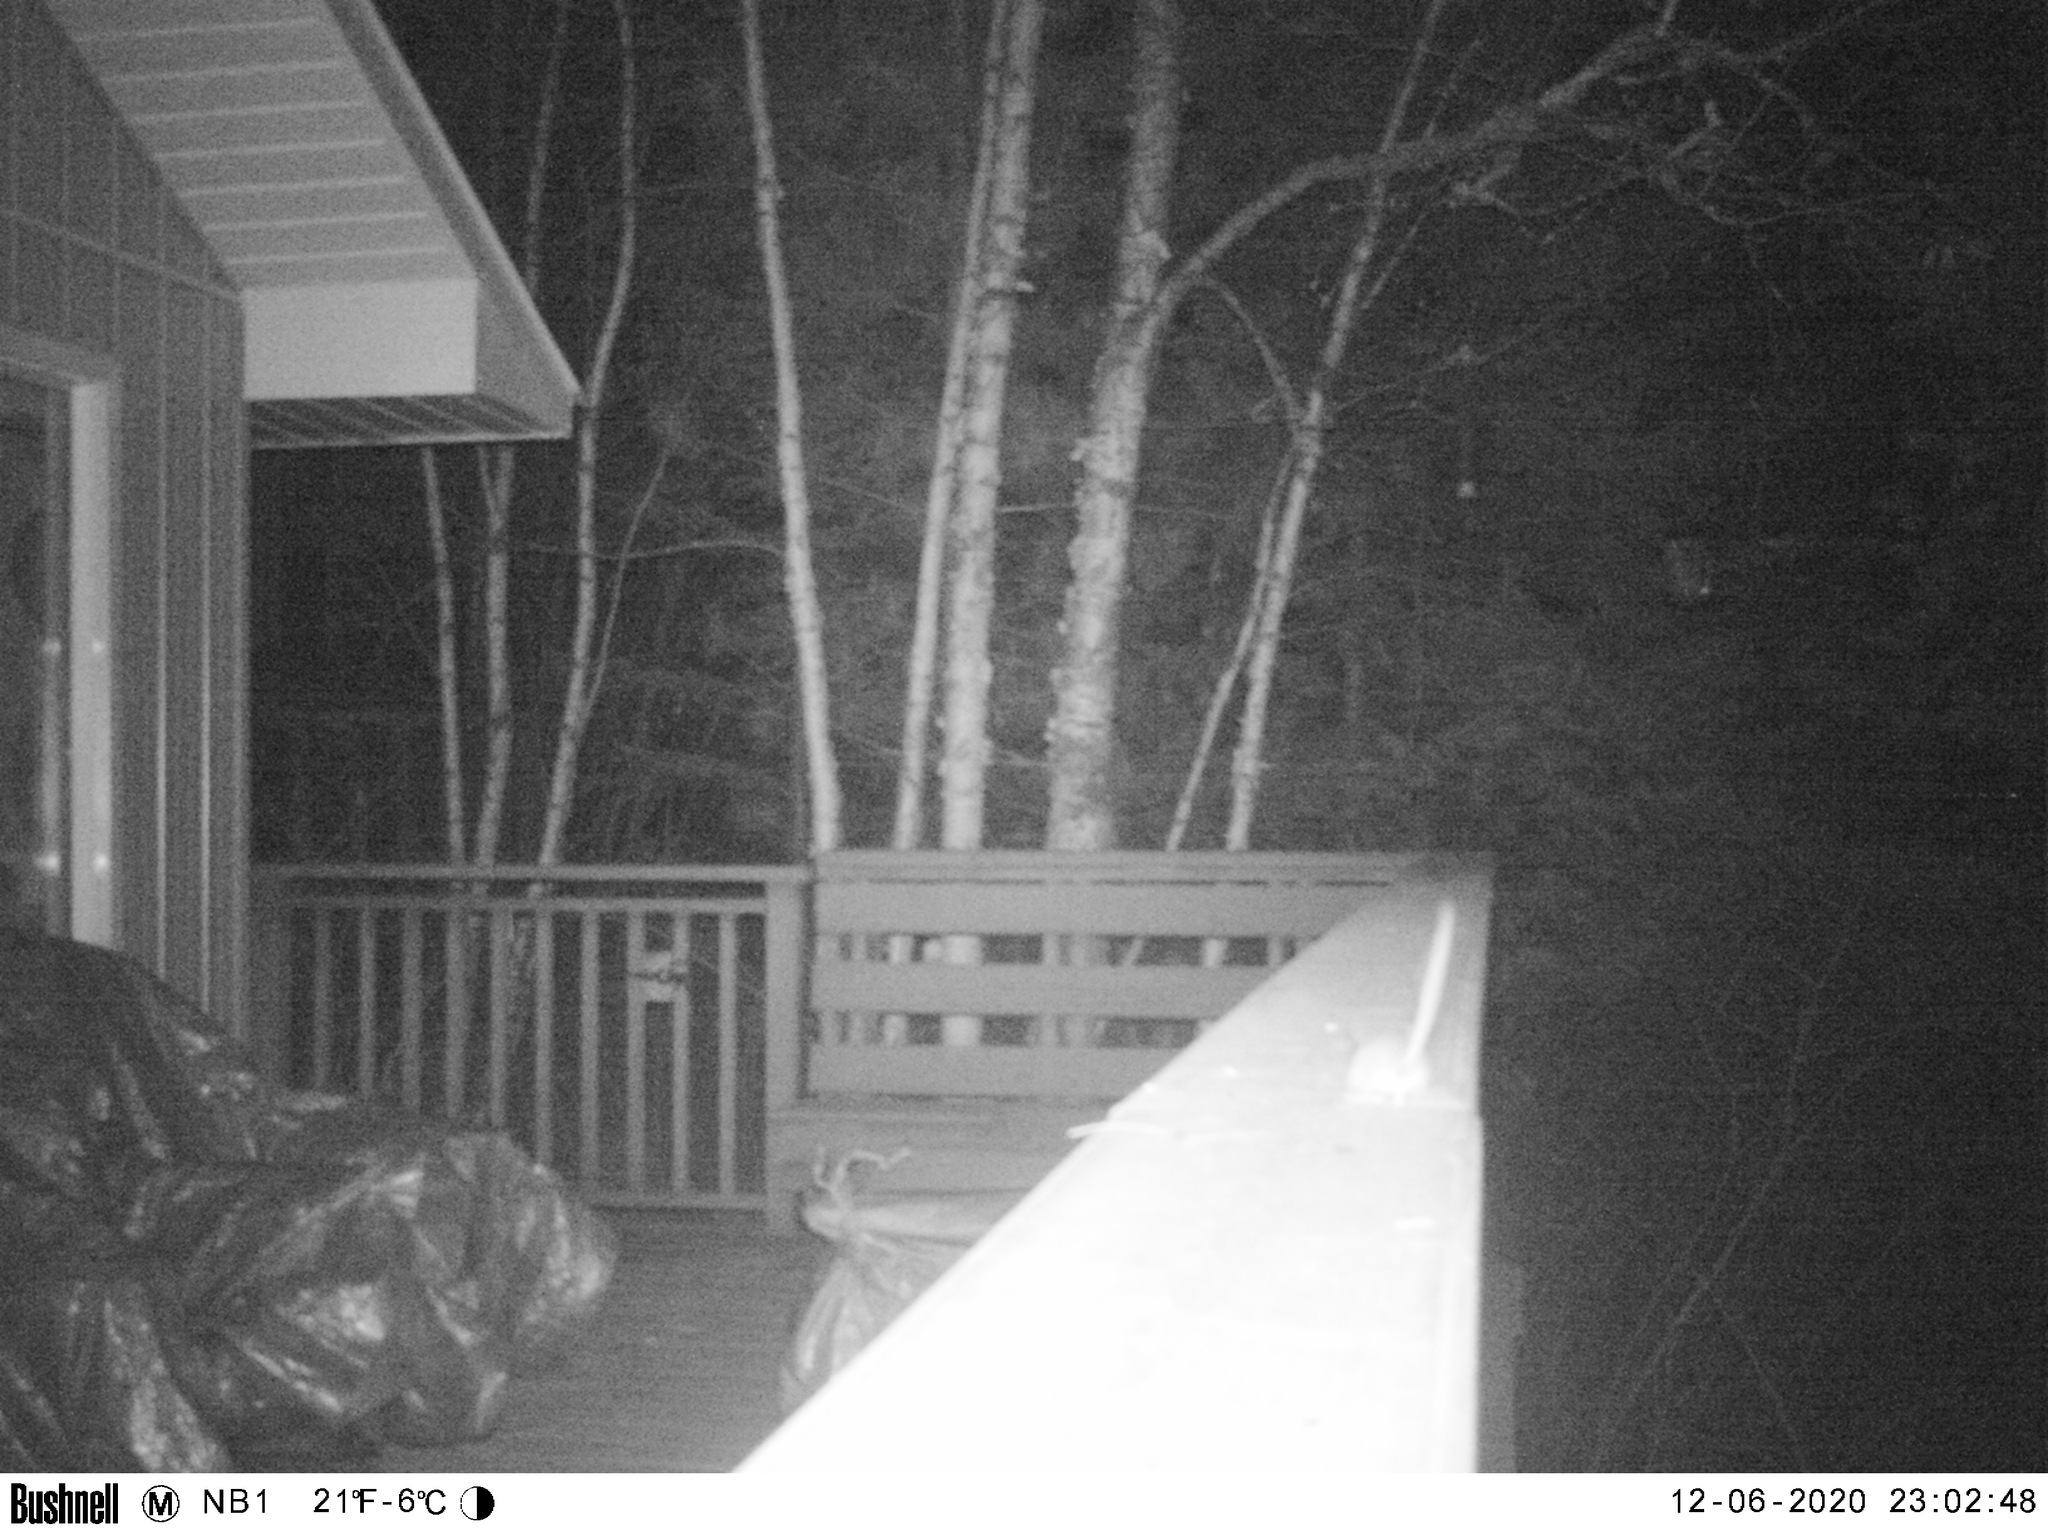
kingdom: Animalia
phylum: Chordata
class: Mammalia
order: Rodentia
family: Cricetidae
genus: Peromyscus
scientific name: Peromyscus maniculatus
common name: Deer mouse
